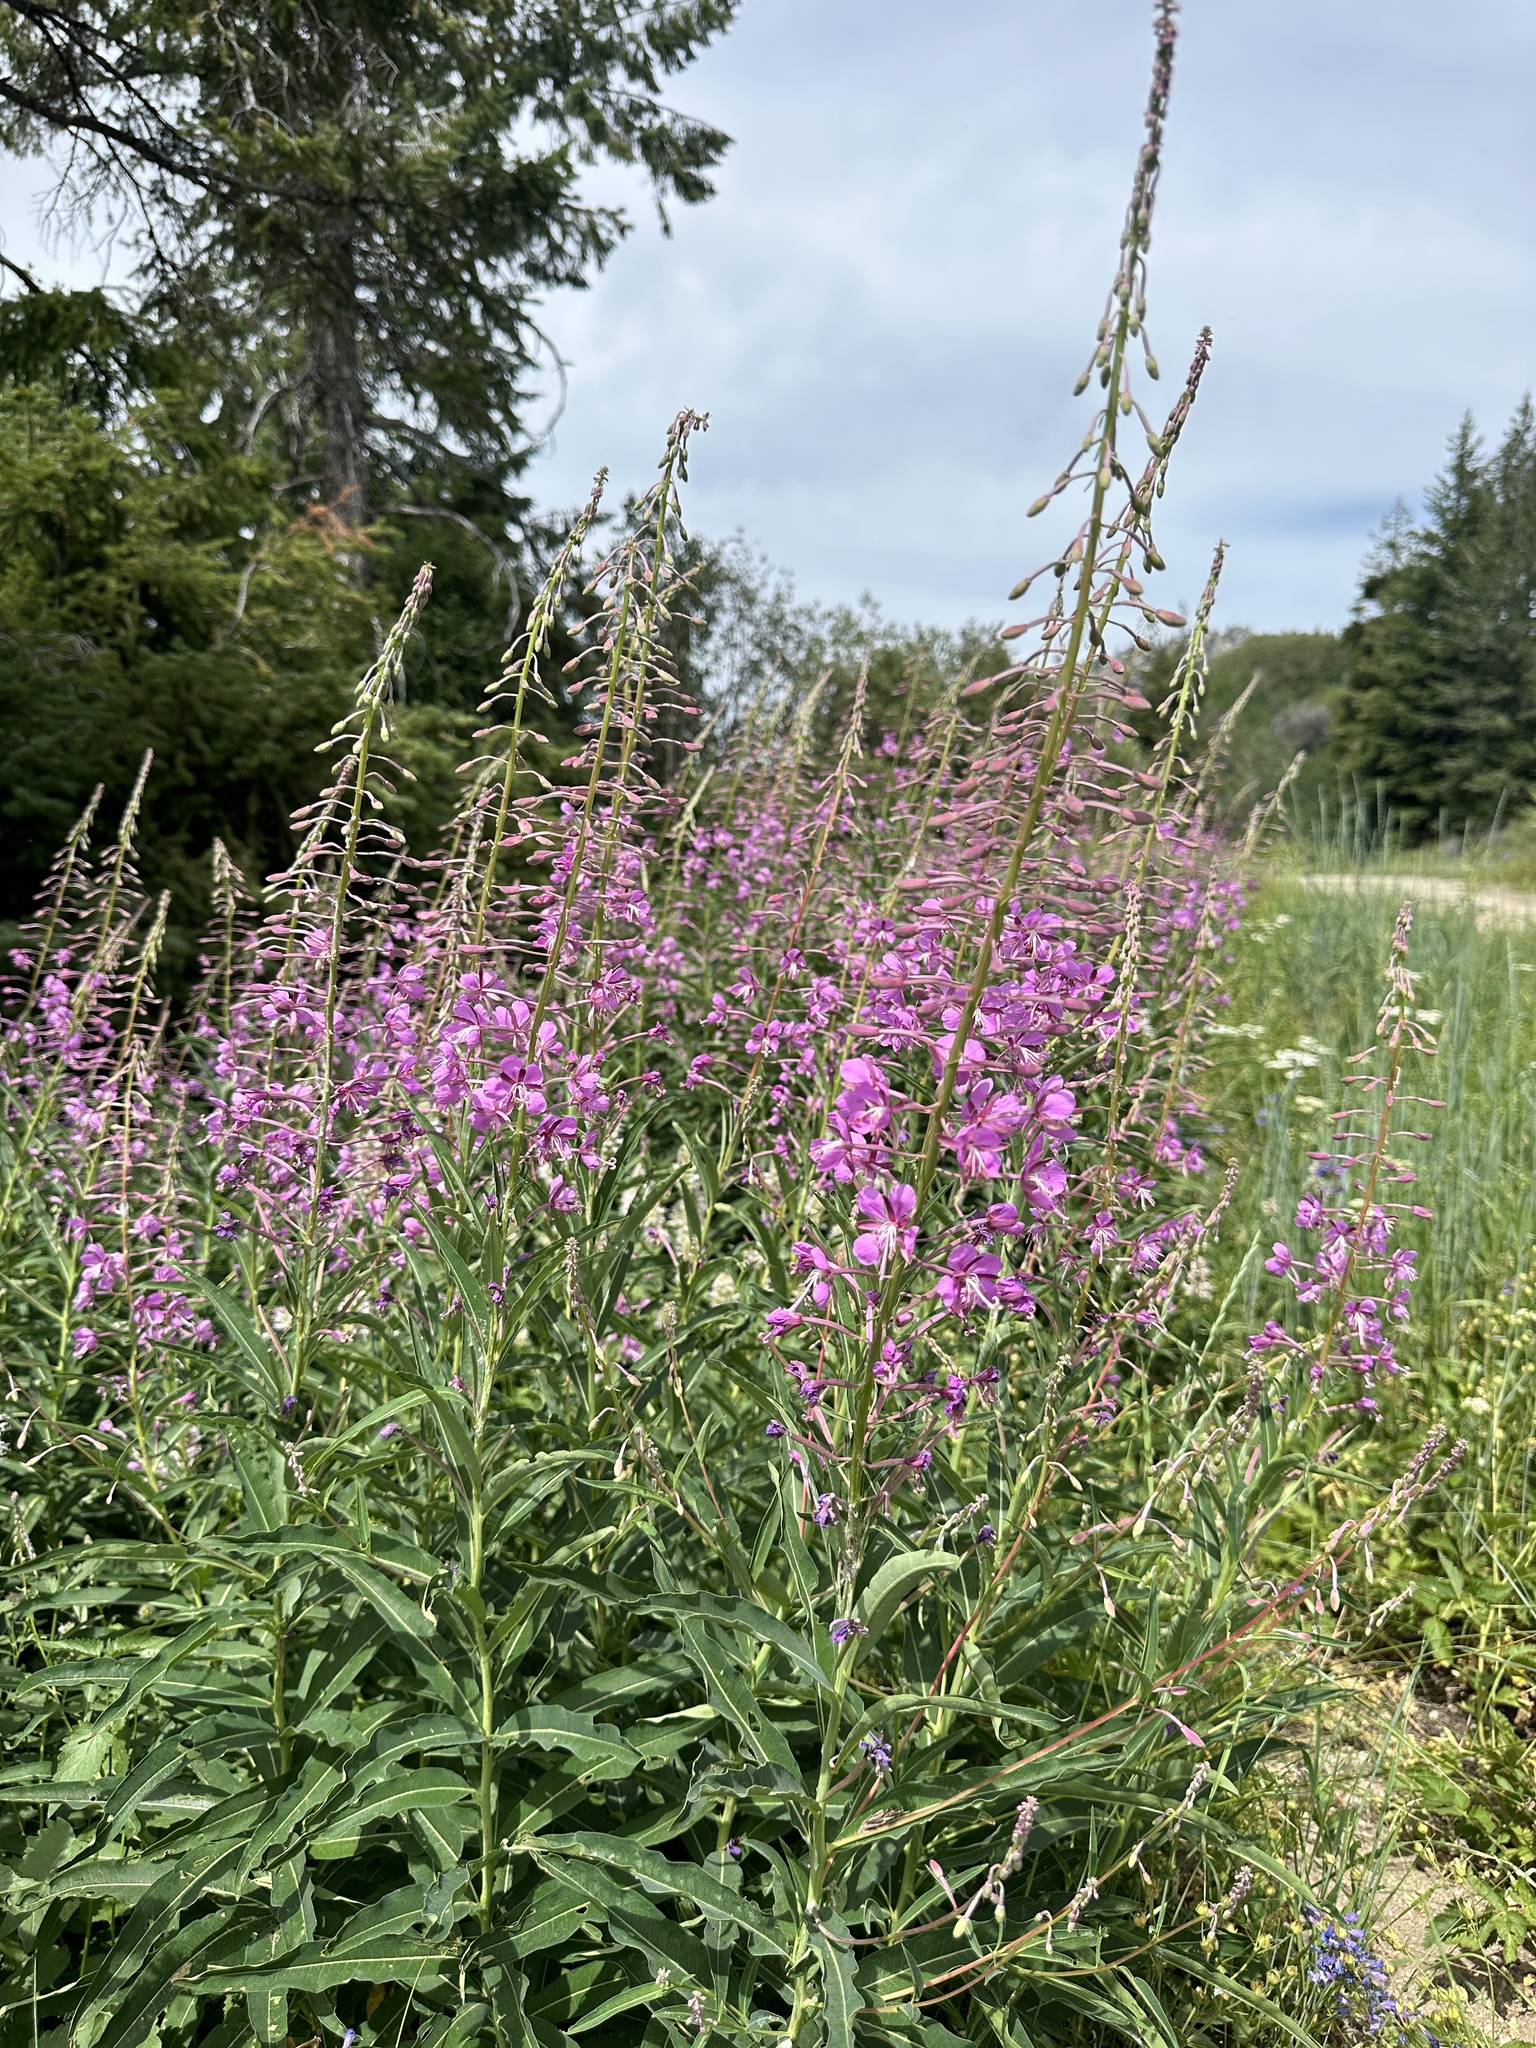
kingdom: Plantae
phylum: Tracheophyta
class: Magnoliopsida
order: Myrtales
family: Onagraceae
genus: Chamaenerion
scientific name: Chamaenerion angustifolium
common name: Fireweed
